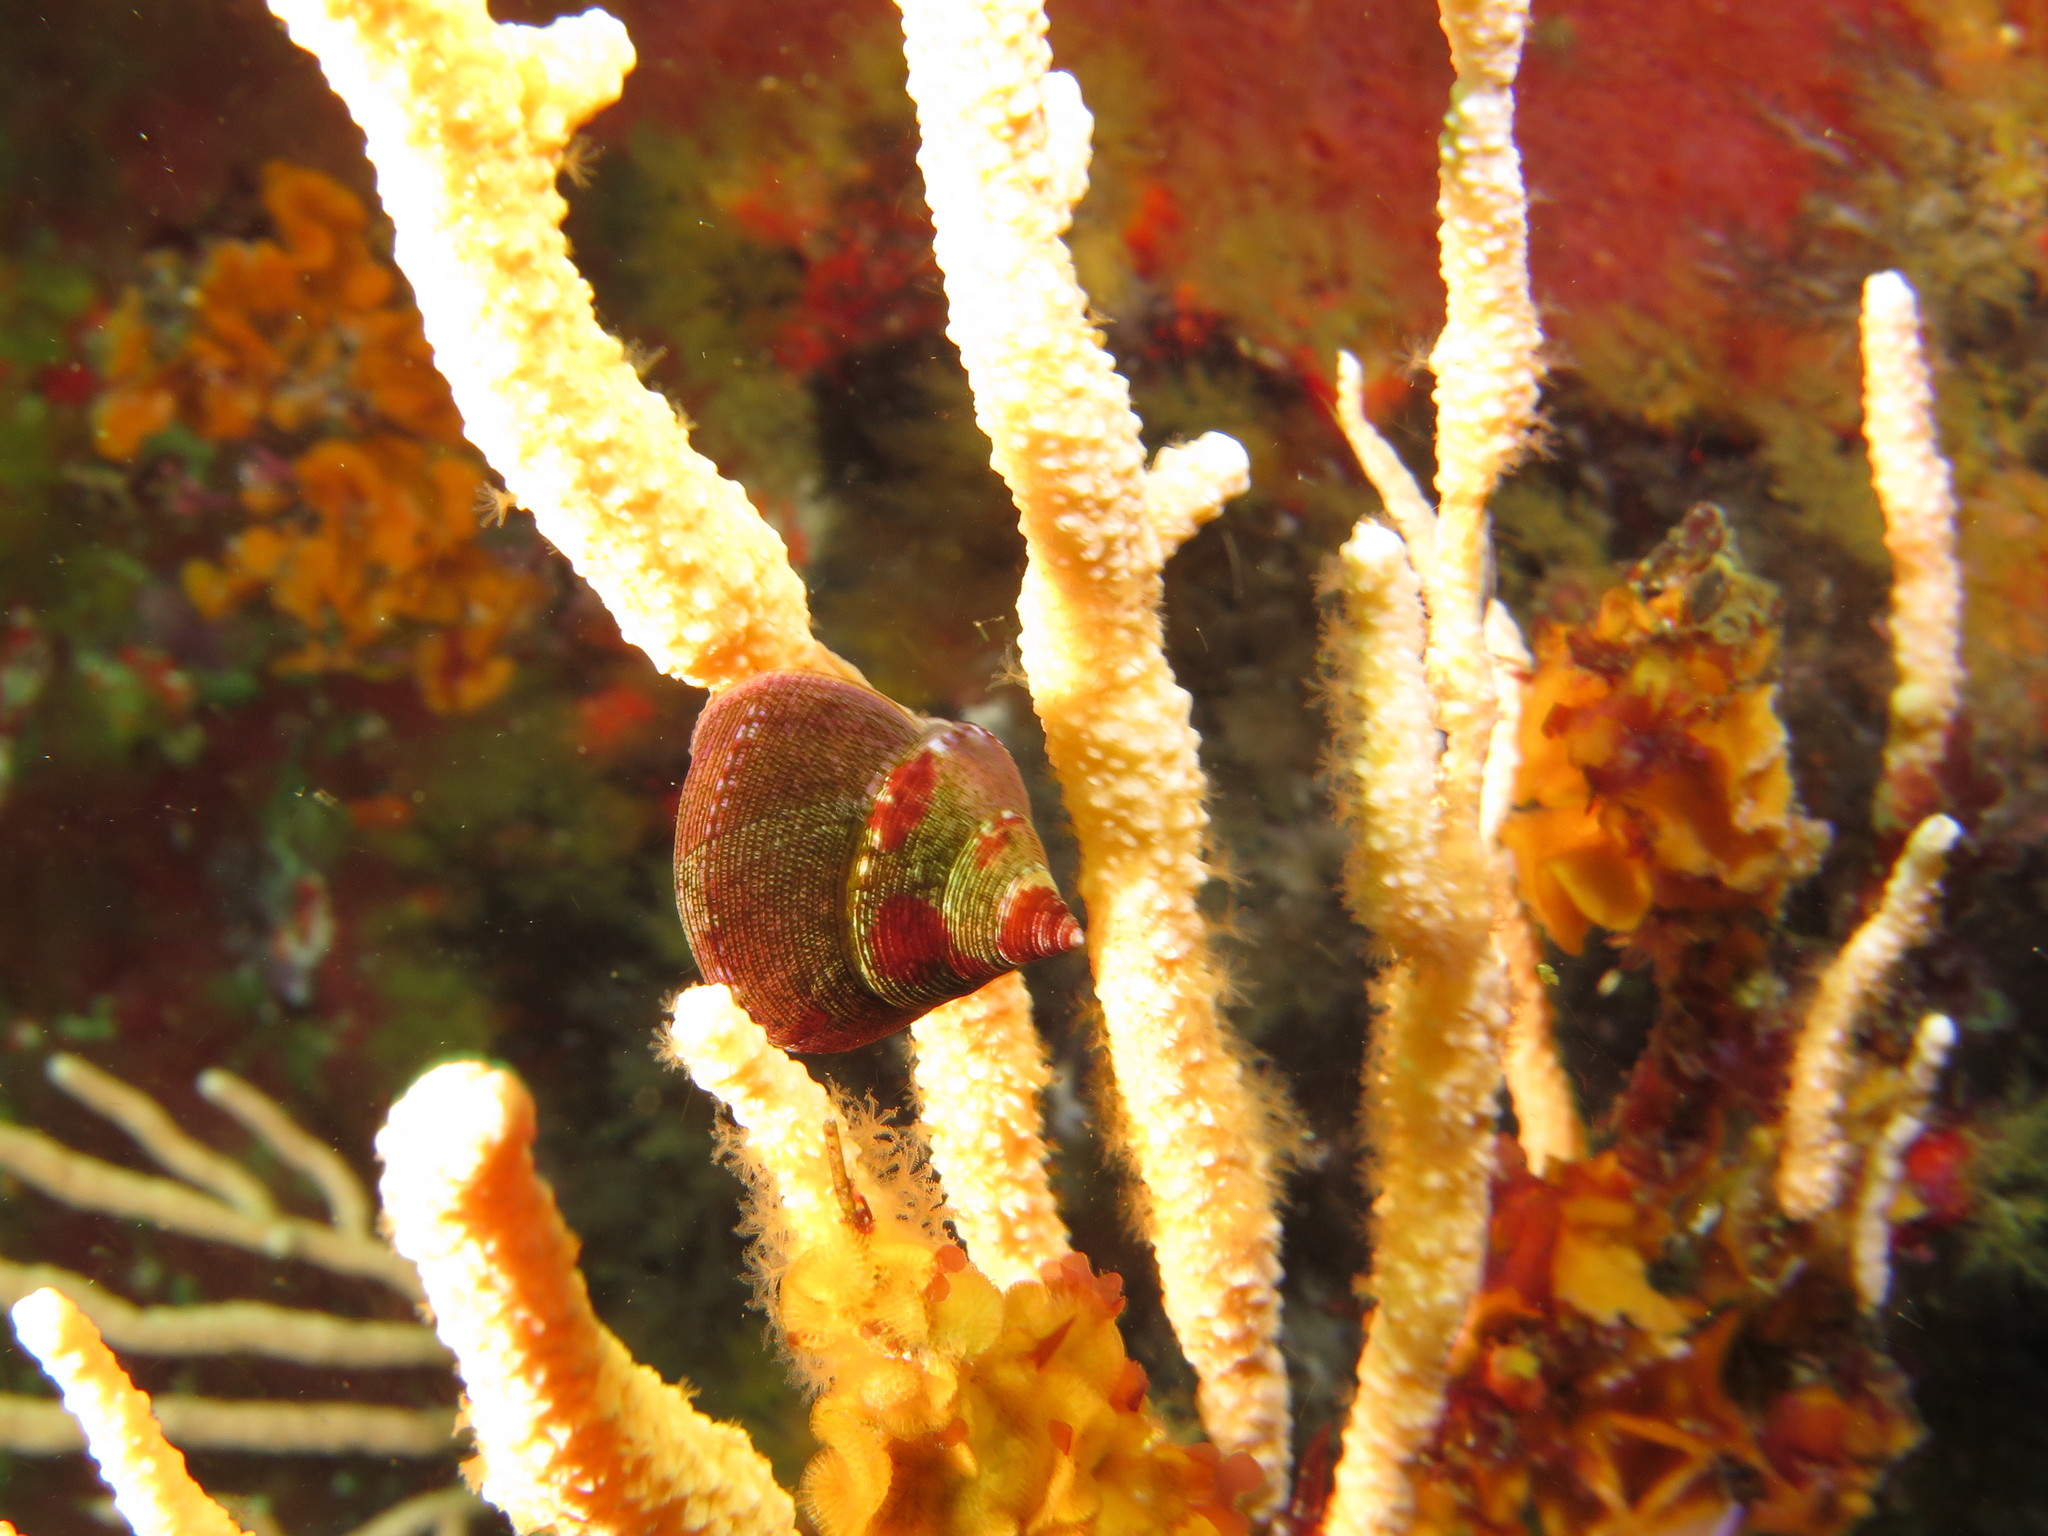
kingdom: Animalia
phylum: Mollusca
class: Gastropoda
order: Trochida
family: Calliostomatidae
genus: Calliostoma
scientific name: Calliostoma ornatum
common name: Ornate topshell
